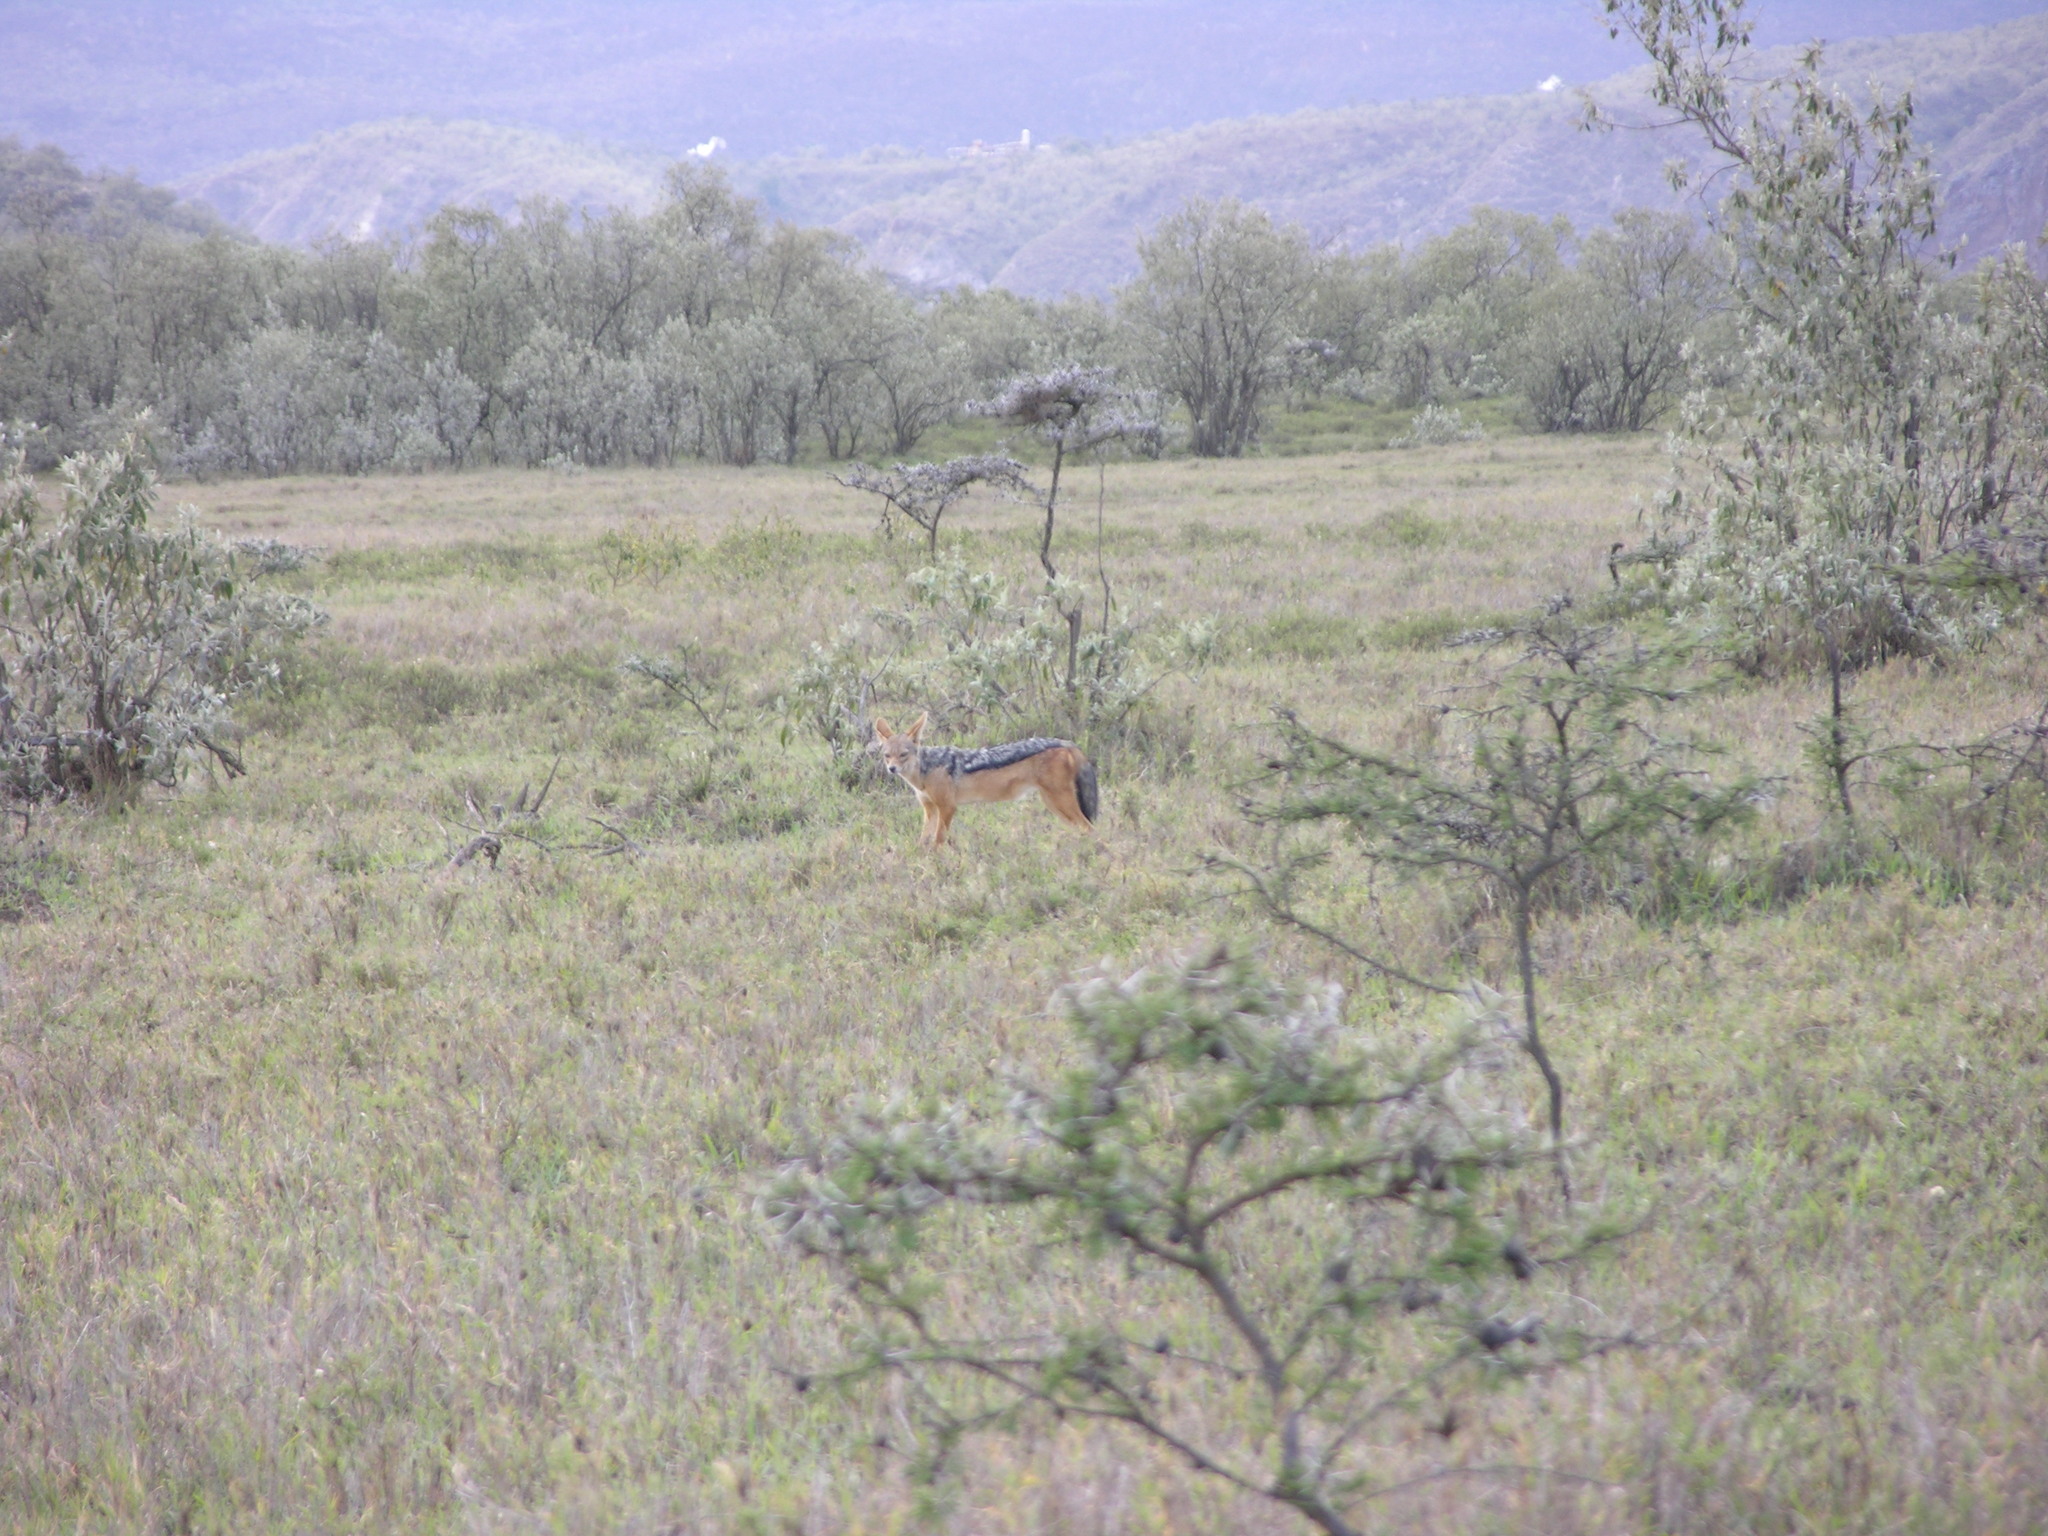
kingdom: Animalia
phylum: Chordata
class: Mammalia
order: Carnivora
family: Canidae
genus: Lupulella
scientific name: Lupulella
